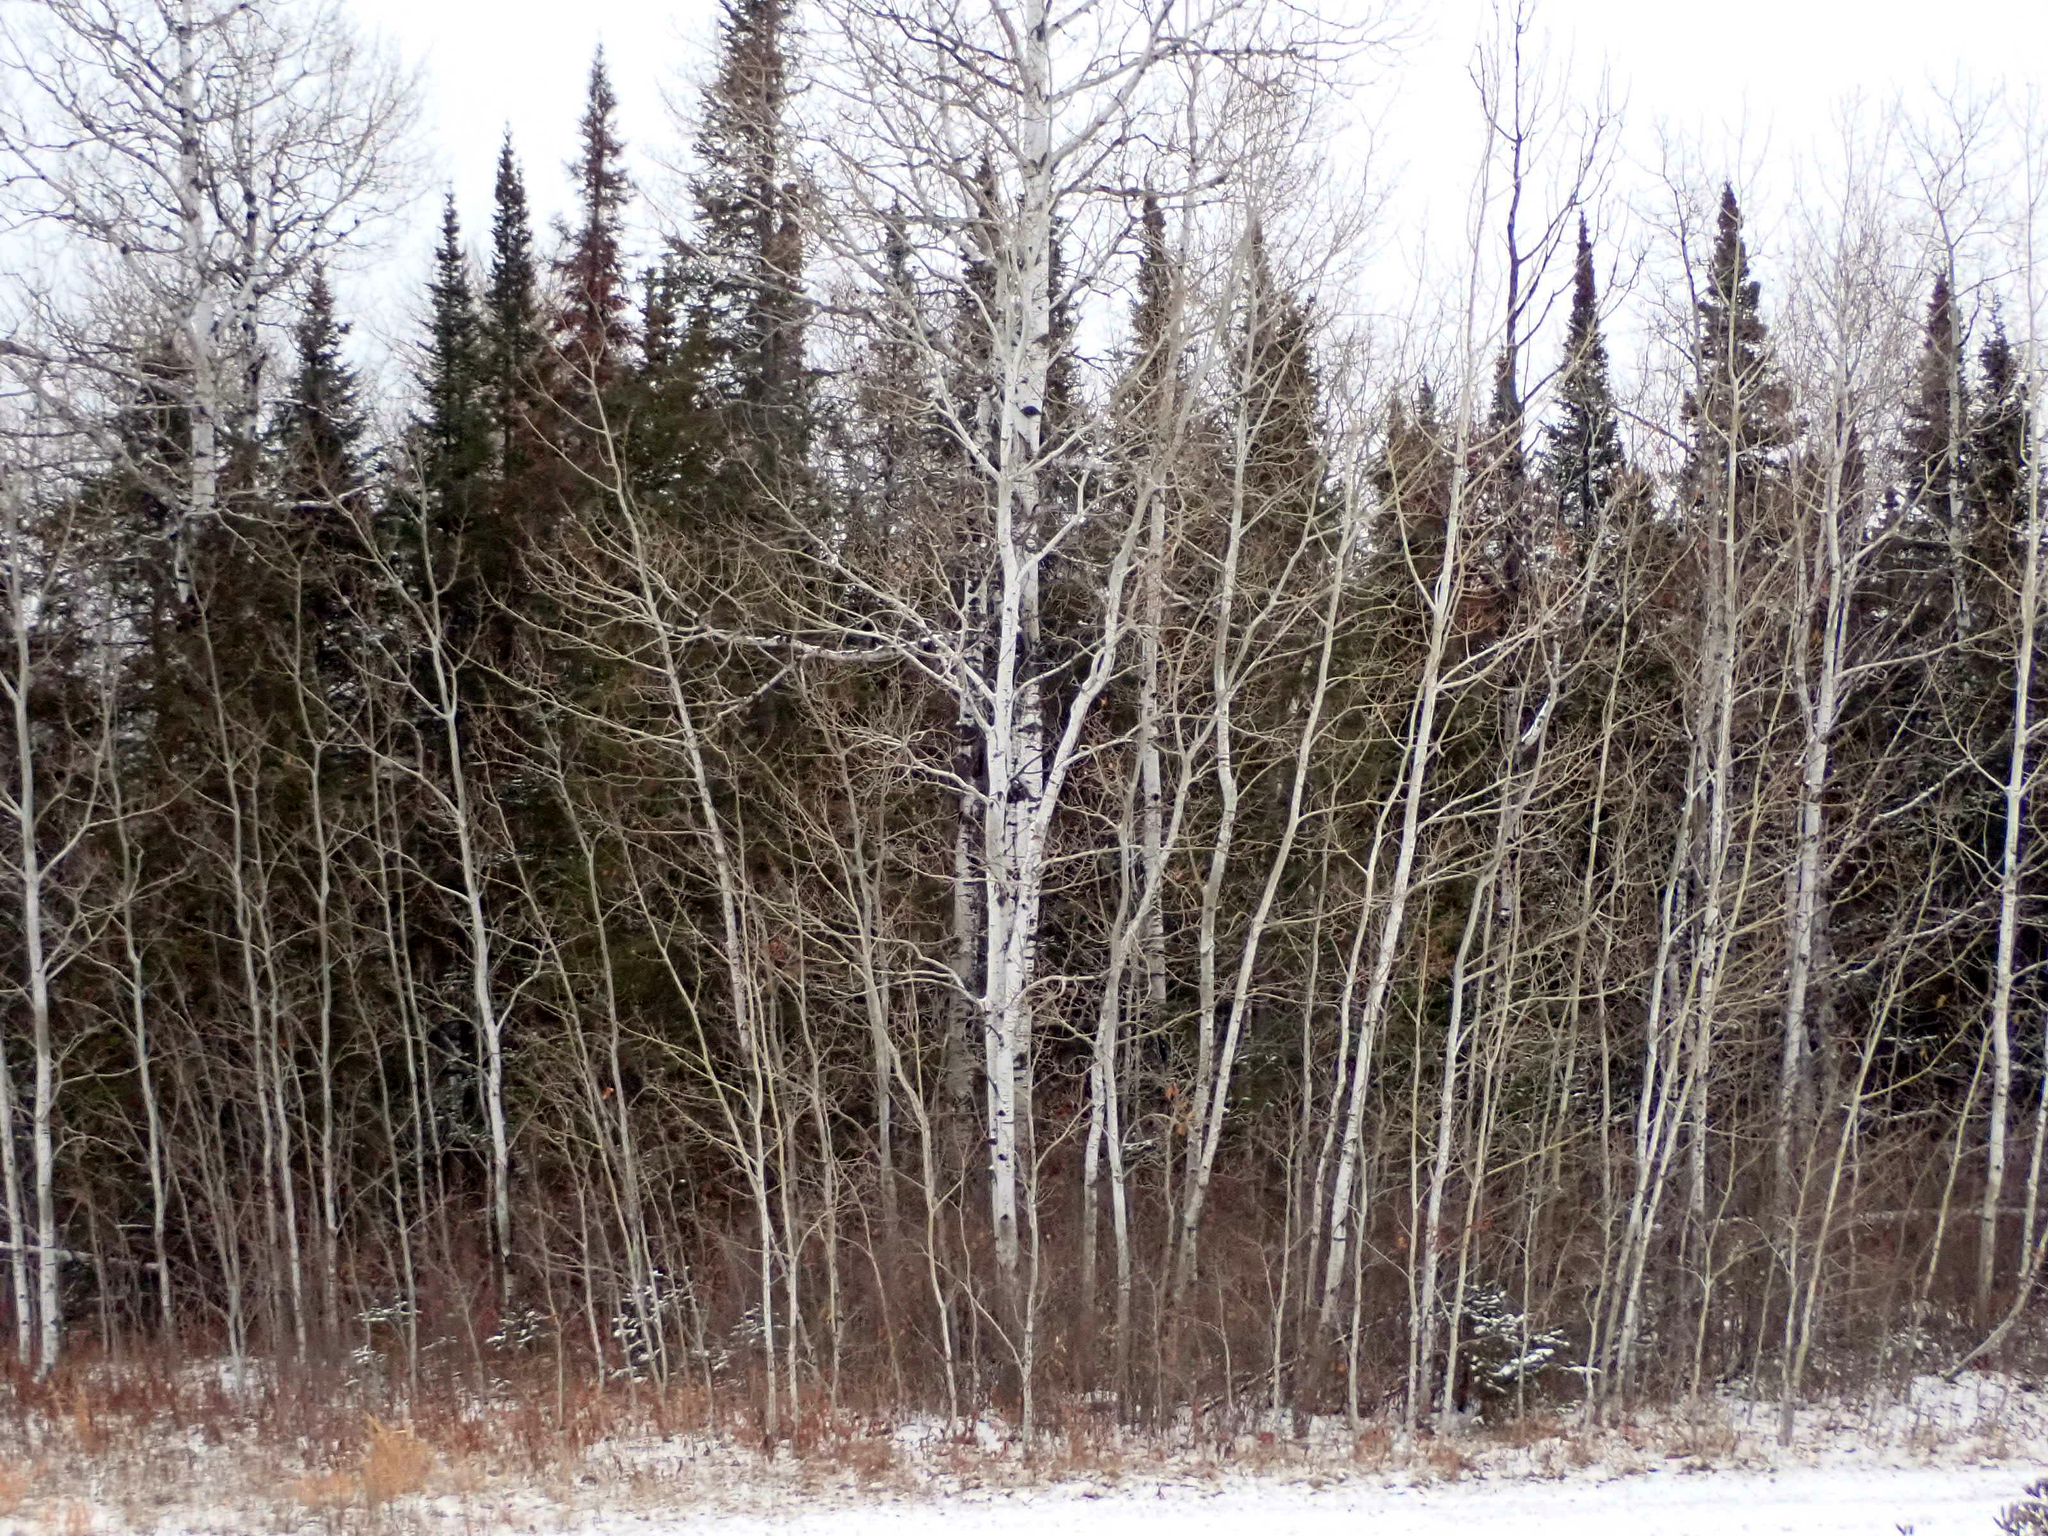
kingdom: Plantae
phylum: Tracheophyta
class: Magnoliopsida
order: Malpighiales
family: Salicaceae
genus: Populus
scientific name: Populus tremuloides
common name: Quaking aspen
